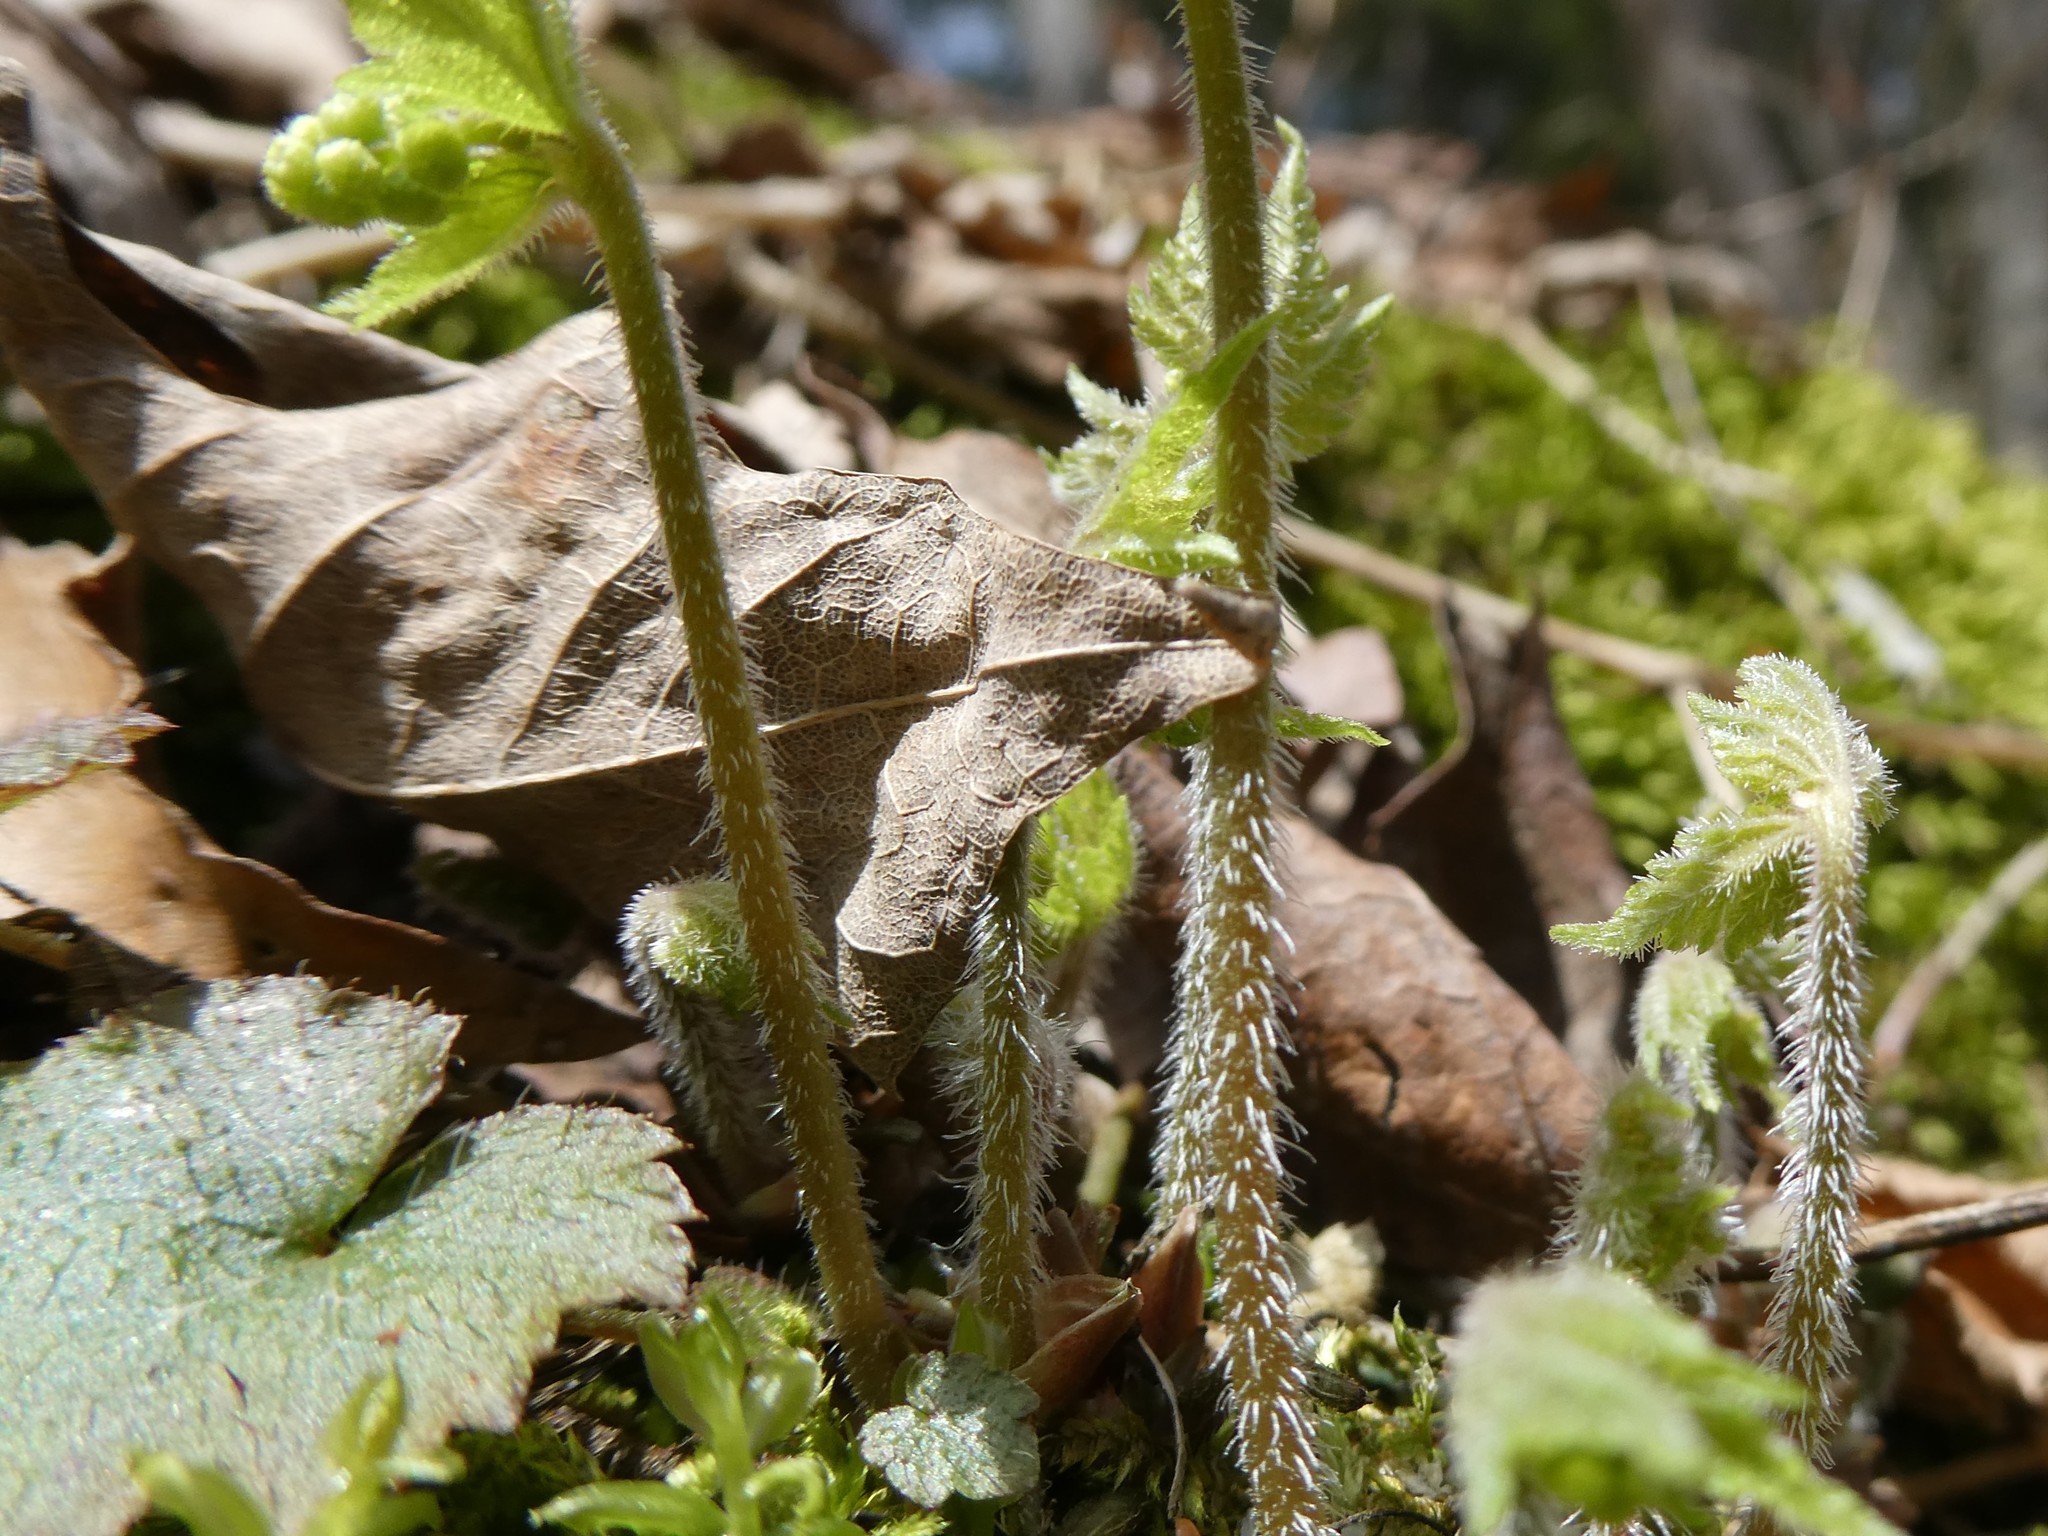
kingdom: Plantae
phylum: Tracheophyta
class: Magnoliopsida
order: Saxifragales
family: Saxifragaceae
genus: Mitella
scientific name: Mitella diphylla
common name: Coolwort
